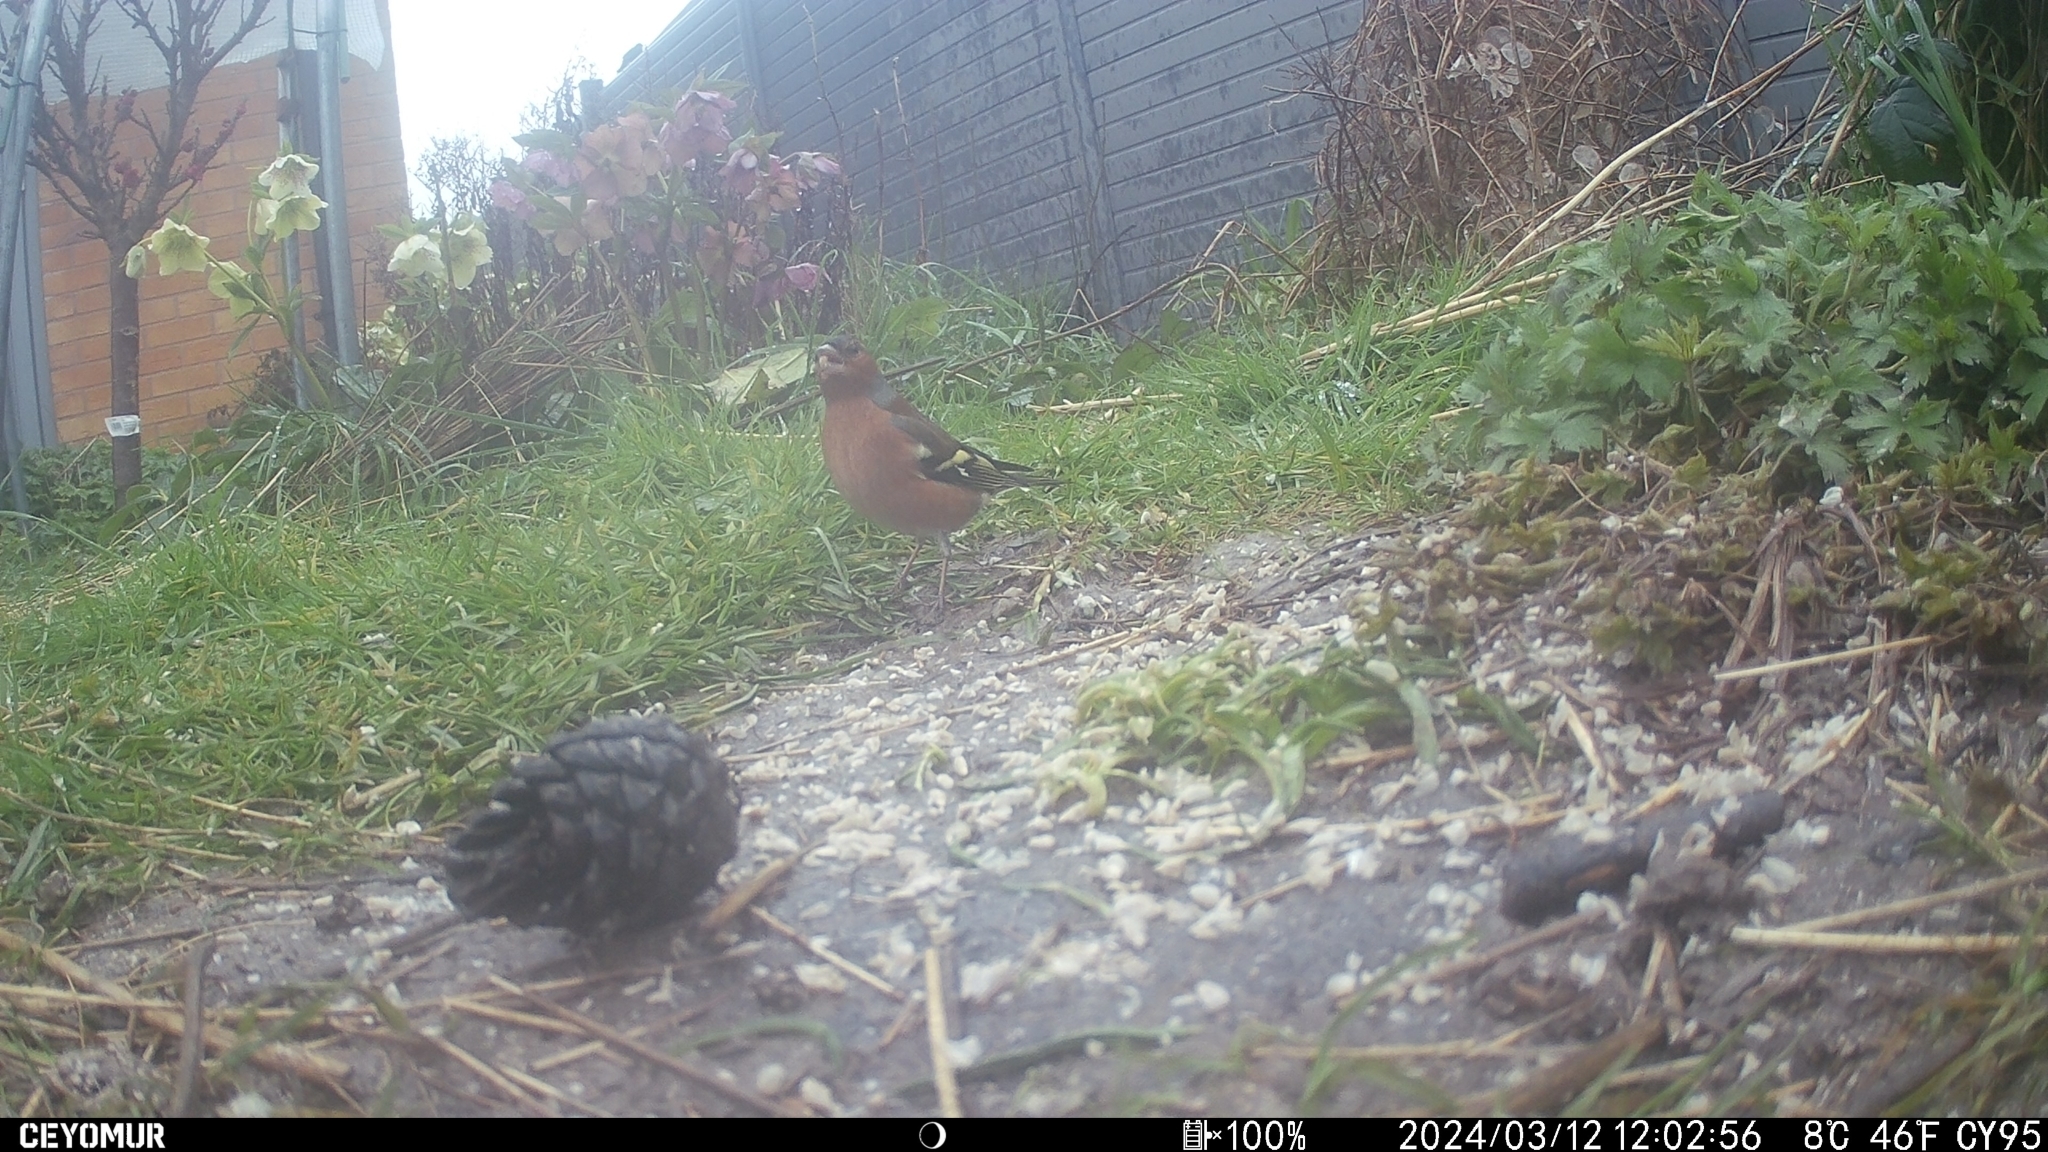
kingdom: Animalia
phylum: Chordata
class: Aves
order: Passeriformes
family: Fringillidae
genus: Fringilla
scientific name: Fringilla coelebs
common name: Common chaffinch
